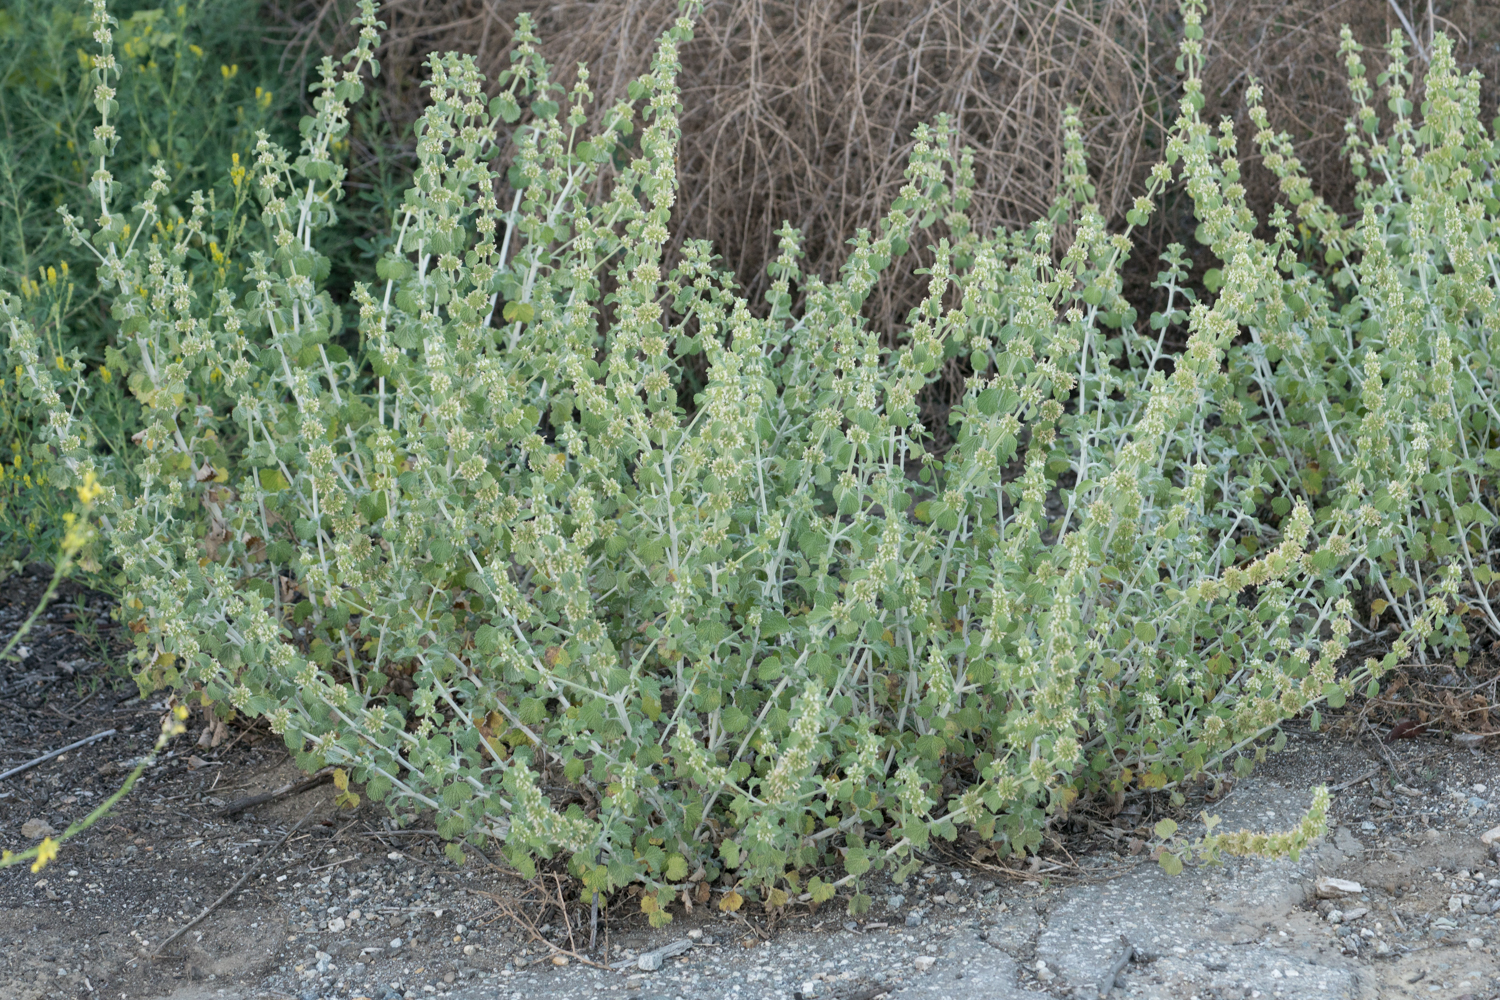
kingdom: Plantae
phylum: Tracheophyta
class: Magnoliopsida
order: Lamiales
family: Lamiaceae
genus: Marrubium
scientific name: Marrubium vulgare
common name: Horehound
